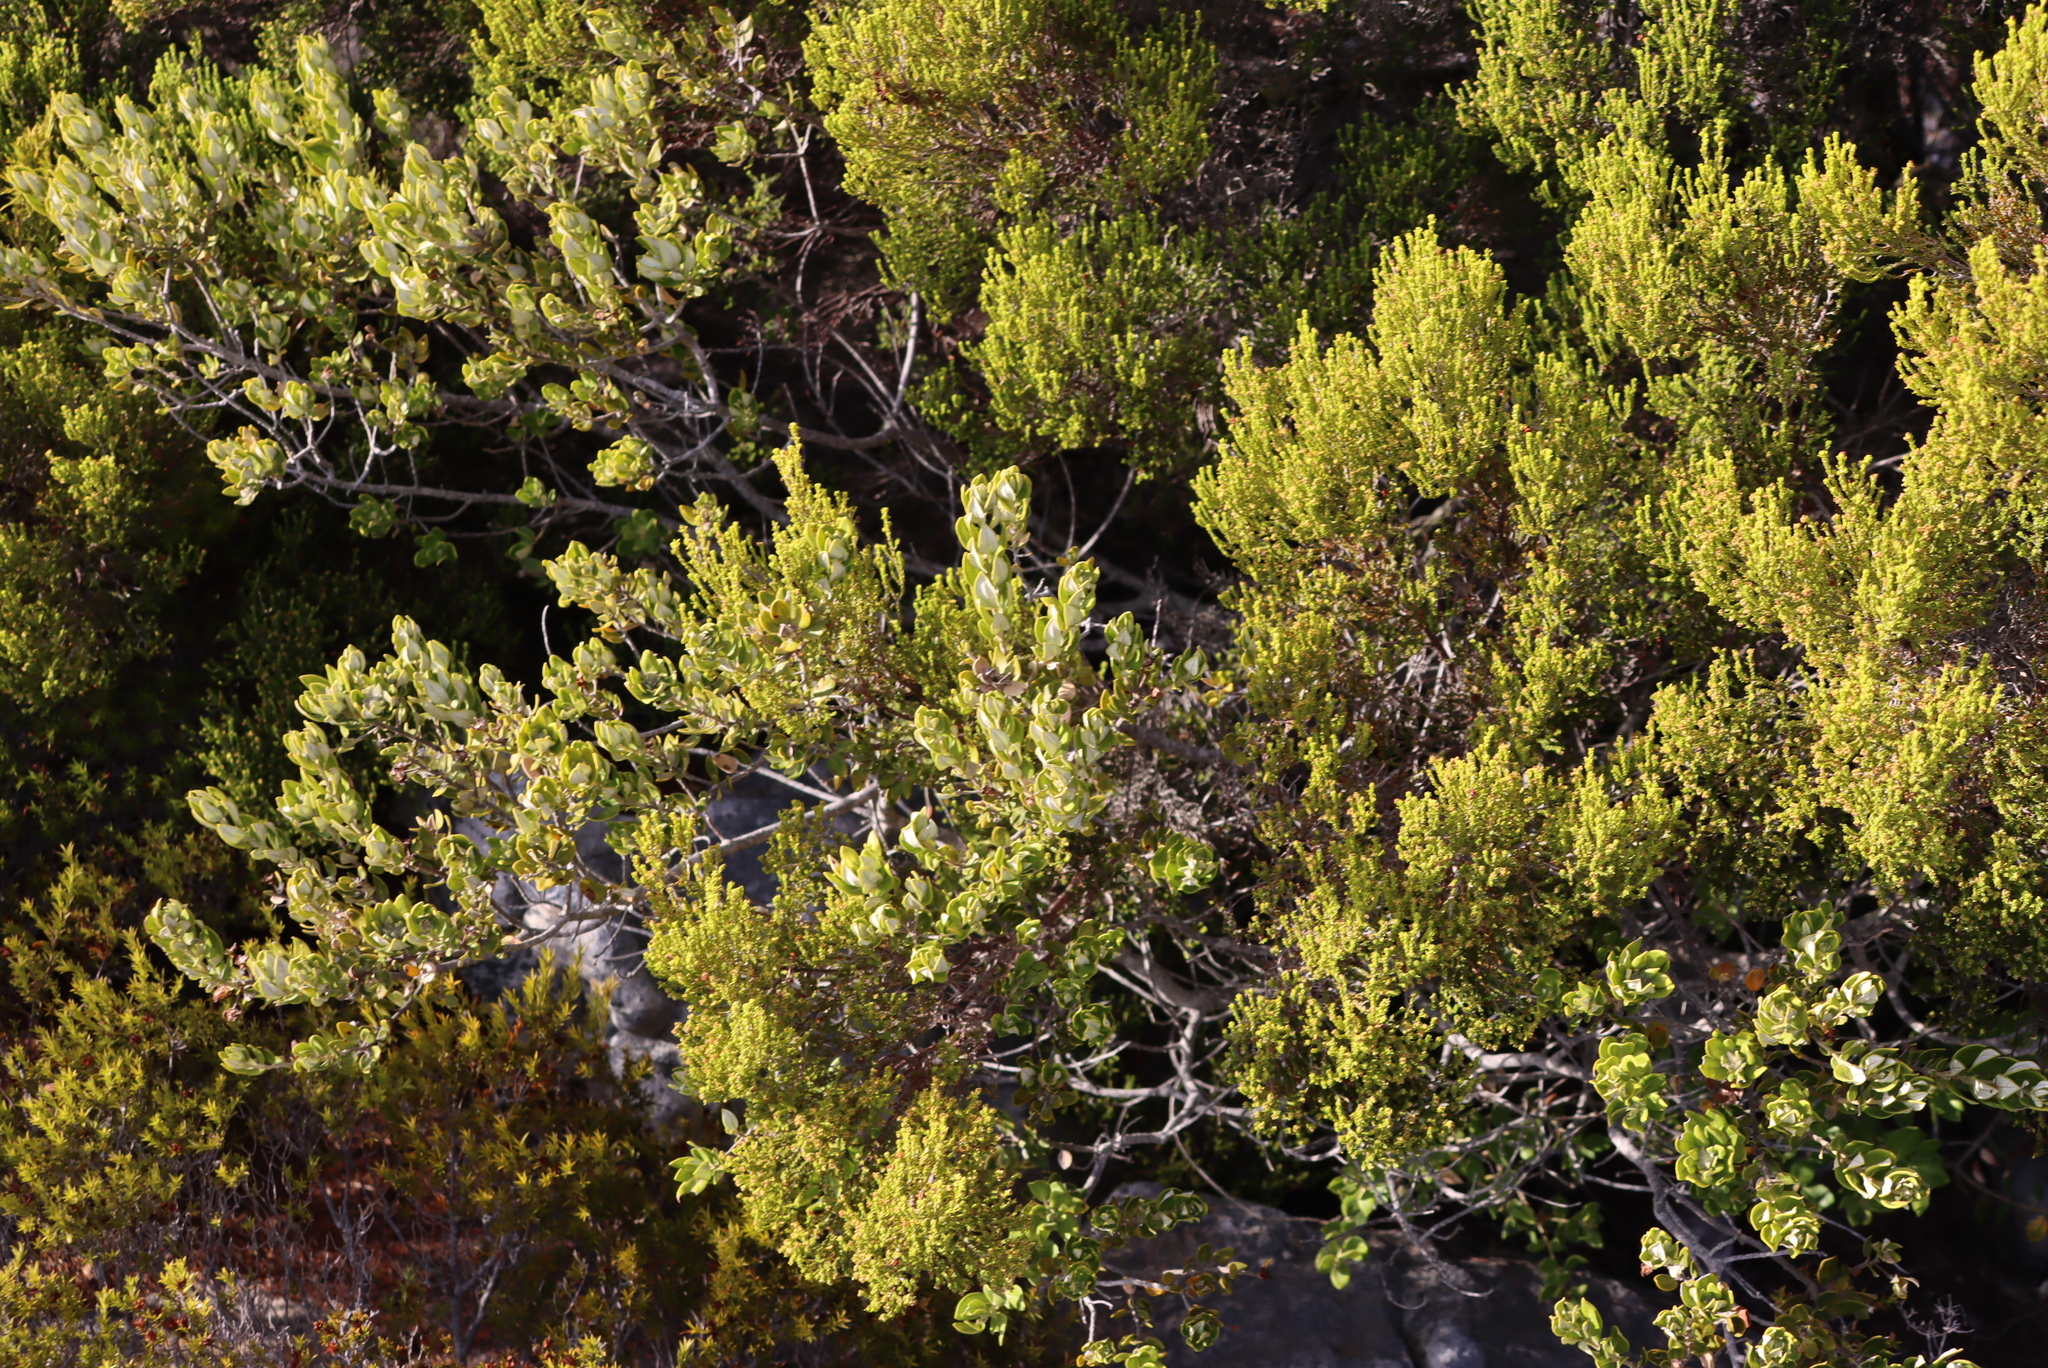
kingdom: Plantae
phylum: Tracheophyta
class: Magnoliopsida
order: Ericales
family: Ericaceae
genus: Erica
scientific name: Erica tristis
